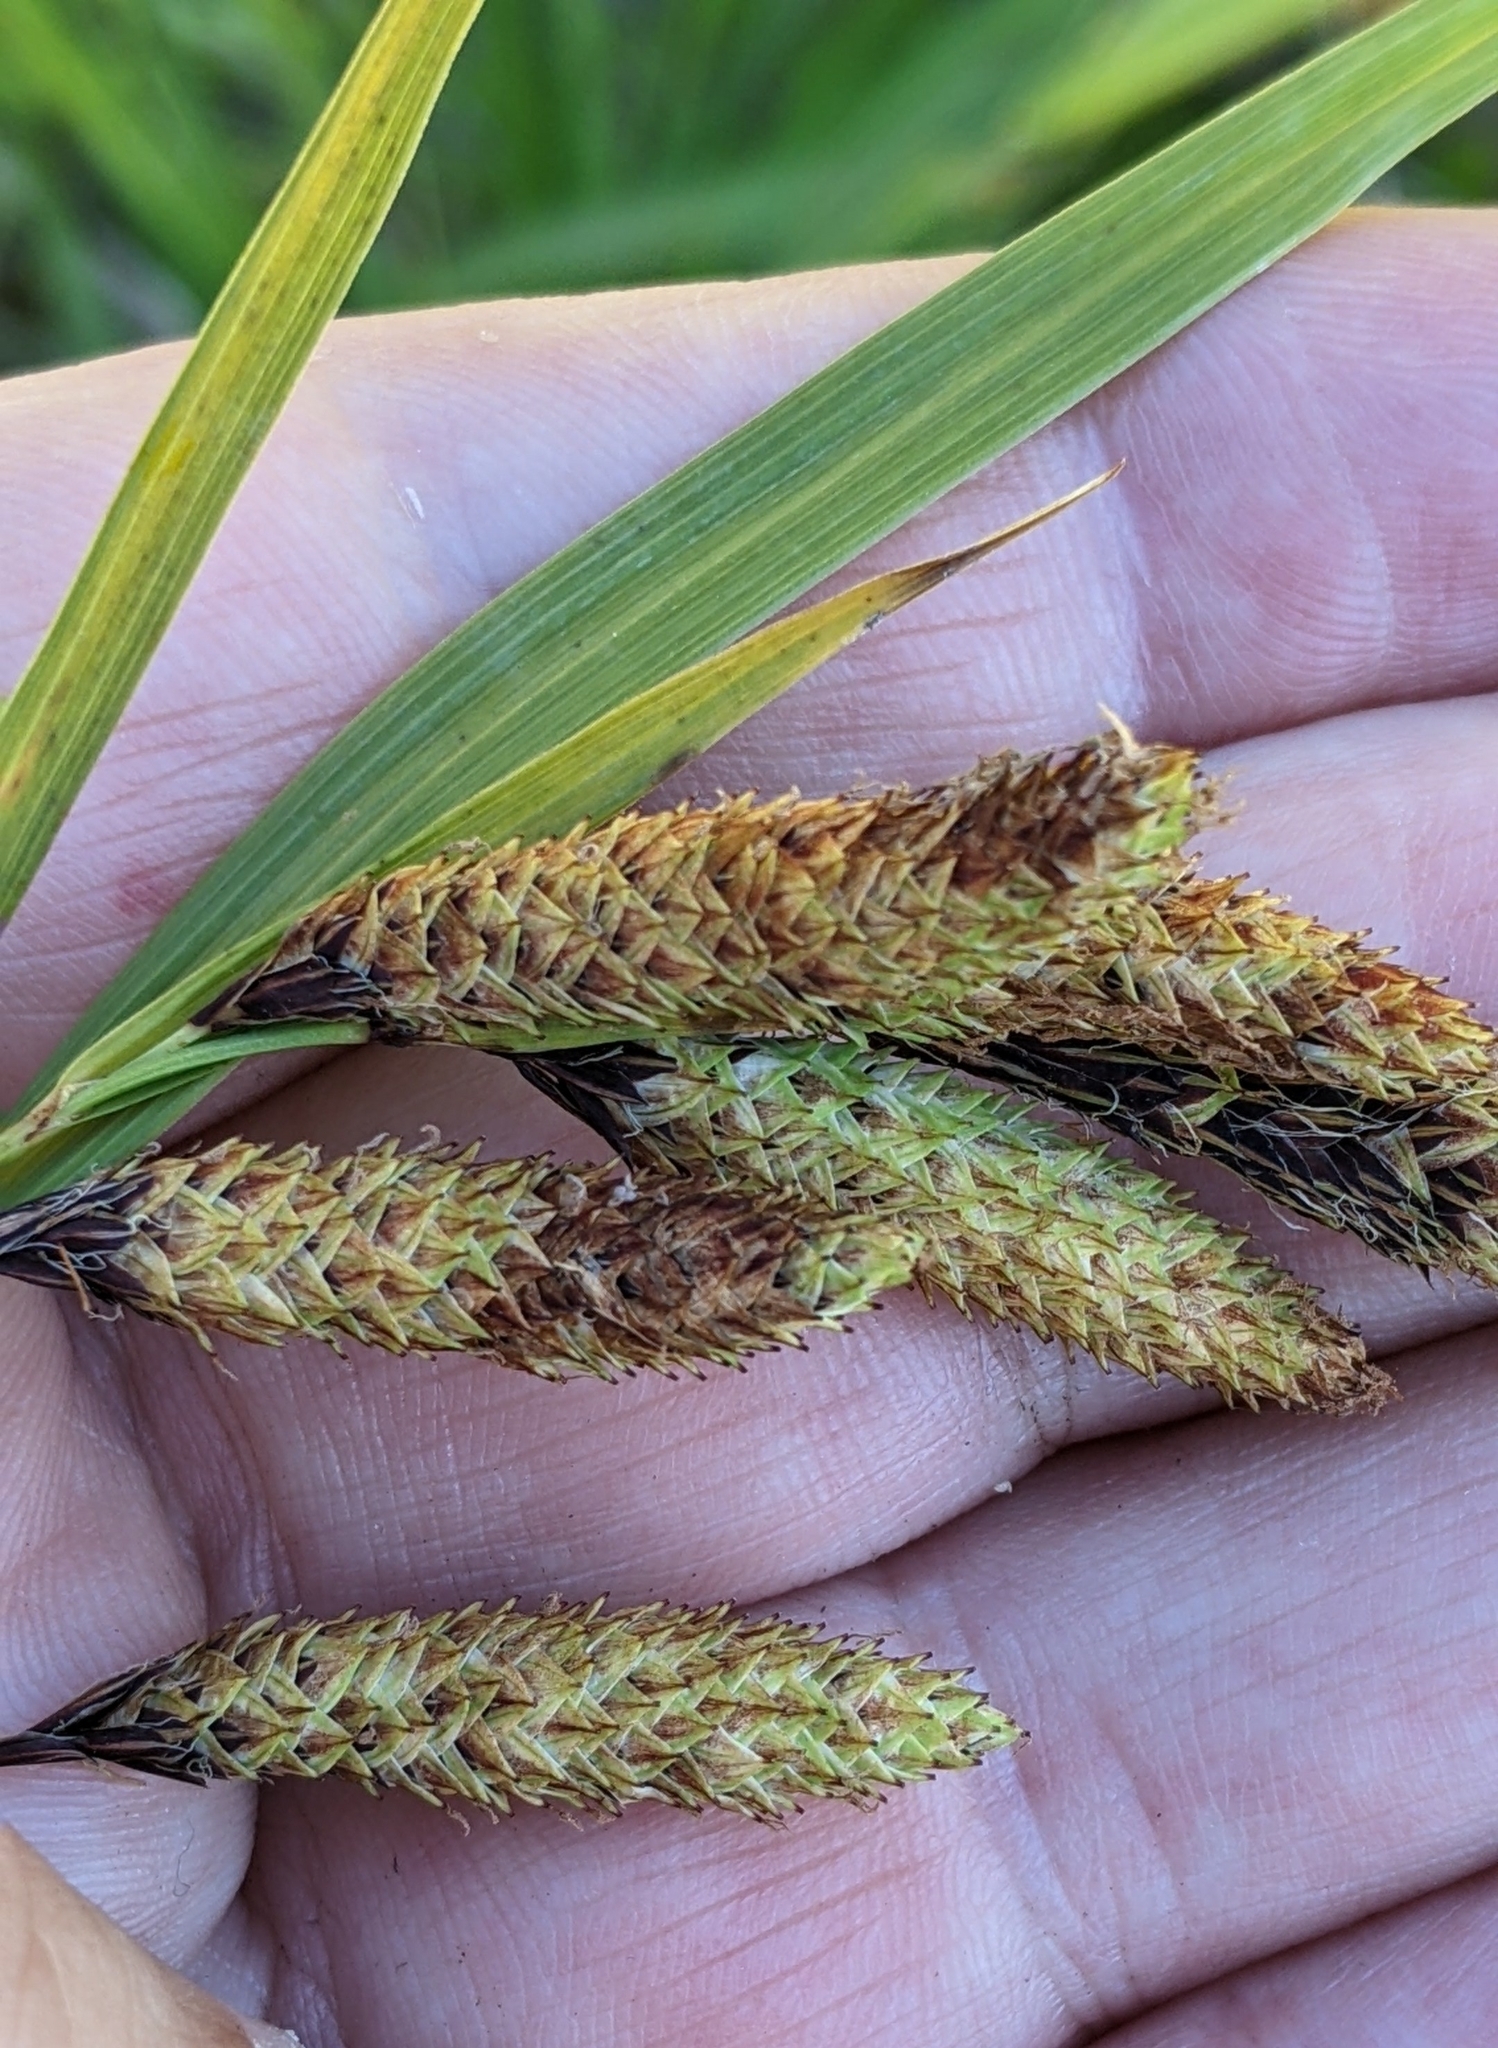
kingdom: Plantae
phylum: Tracheophyta
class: Liliopsida
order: Poales
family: Cyperaceae
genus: Carex
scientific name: Carex mertensii
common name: Mertens' sedge
